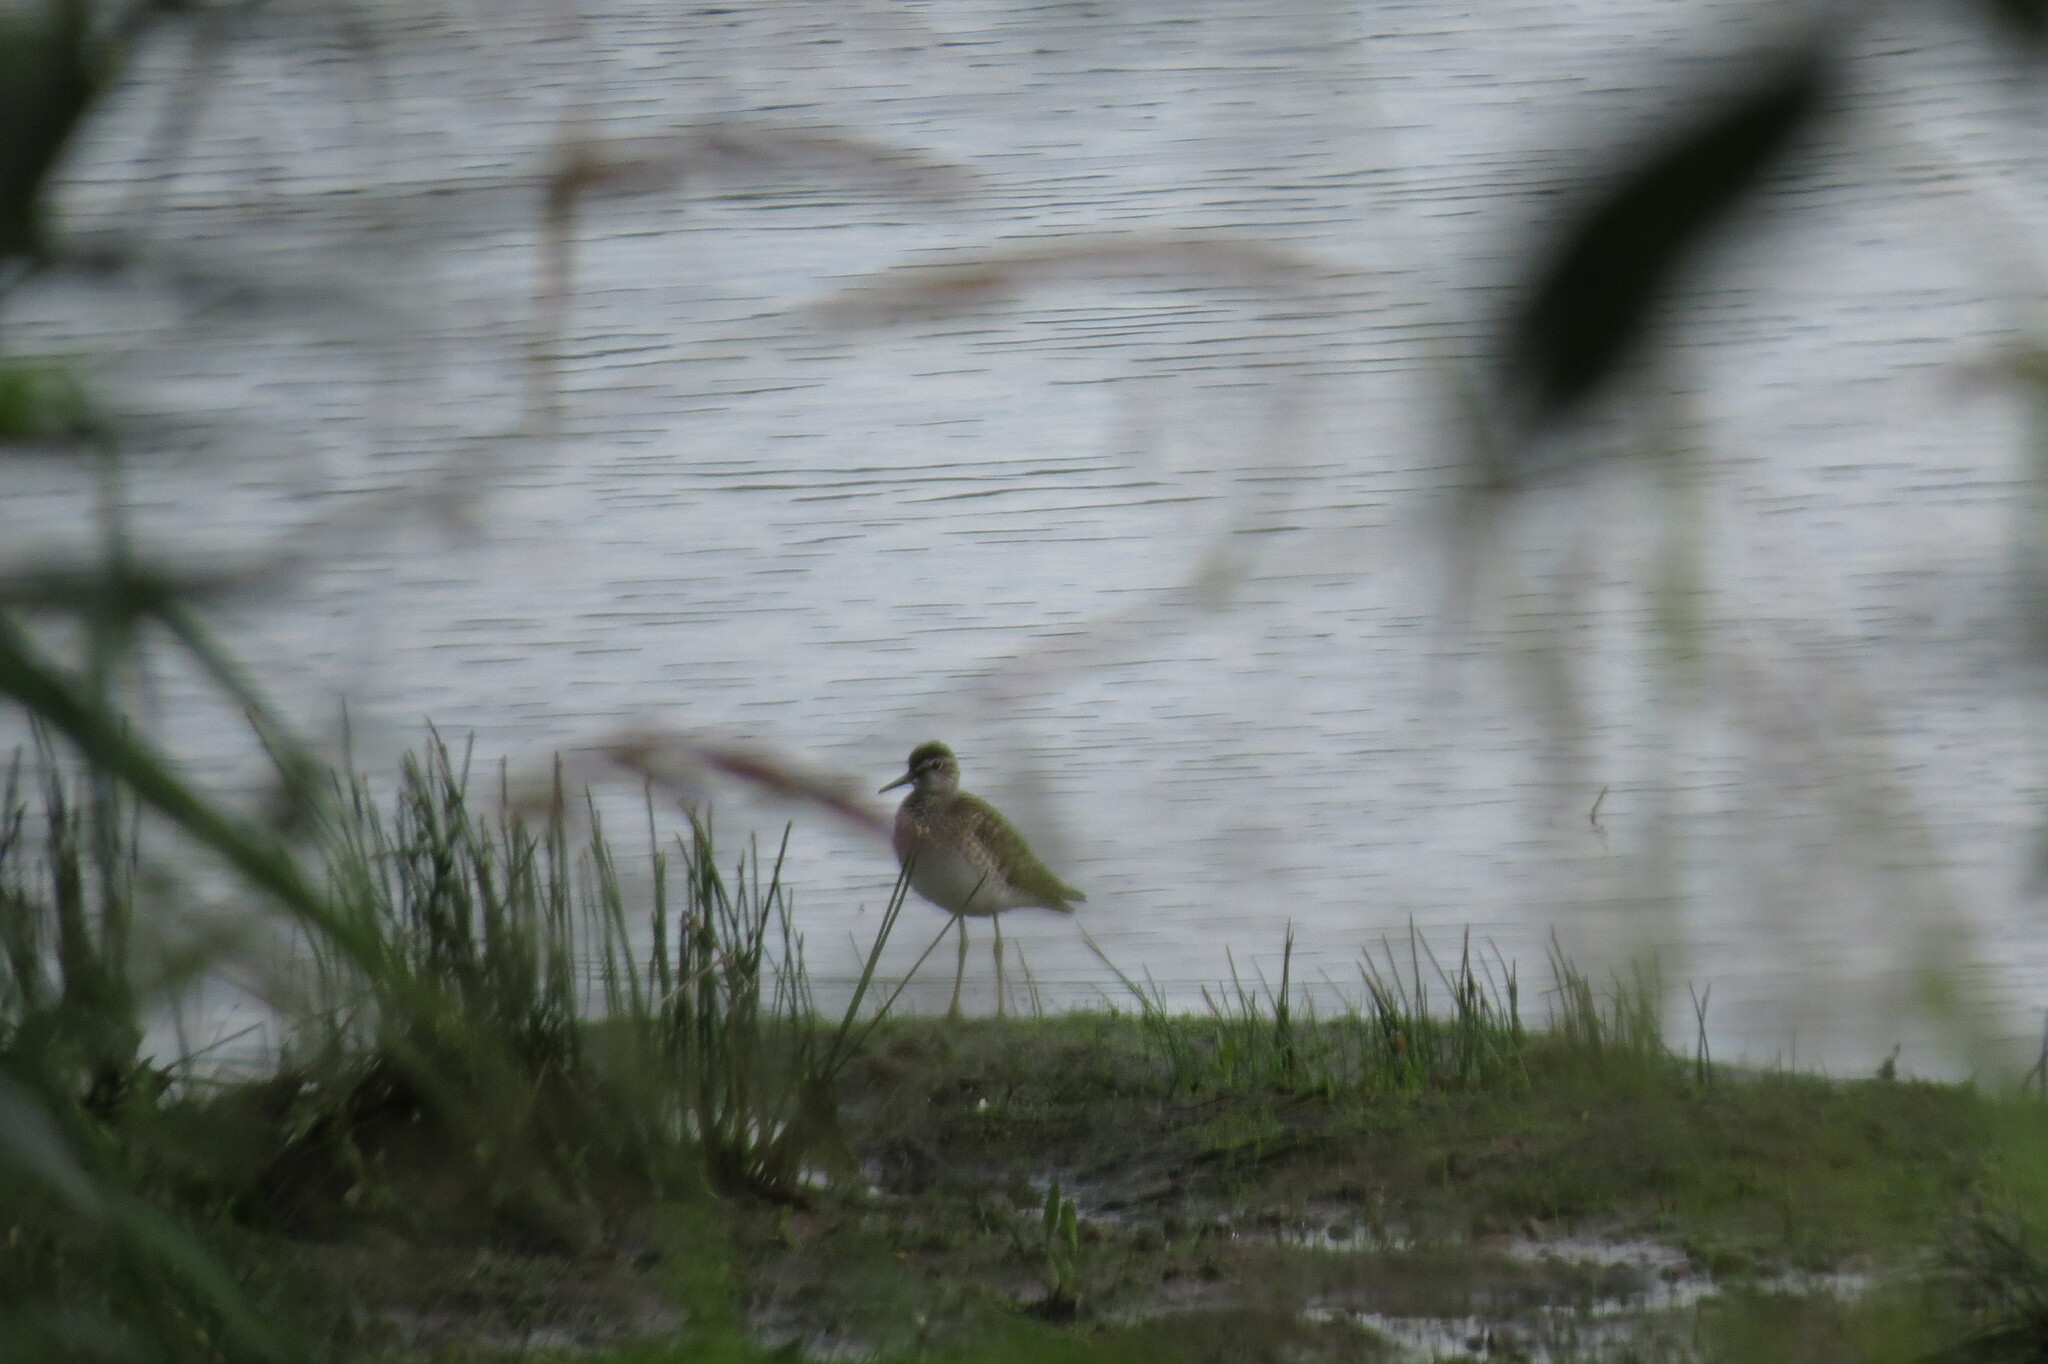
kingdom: Animalia
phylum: Chordata
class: Aves
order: Charadriiformes
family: Scolopacidae
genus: Tringa
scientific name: Tringa glareola
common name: Wood sandpiper
